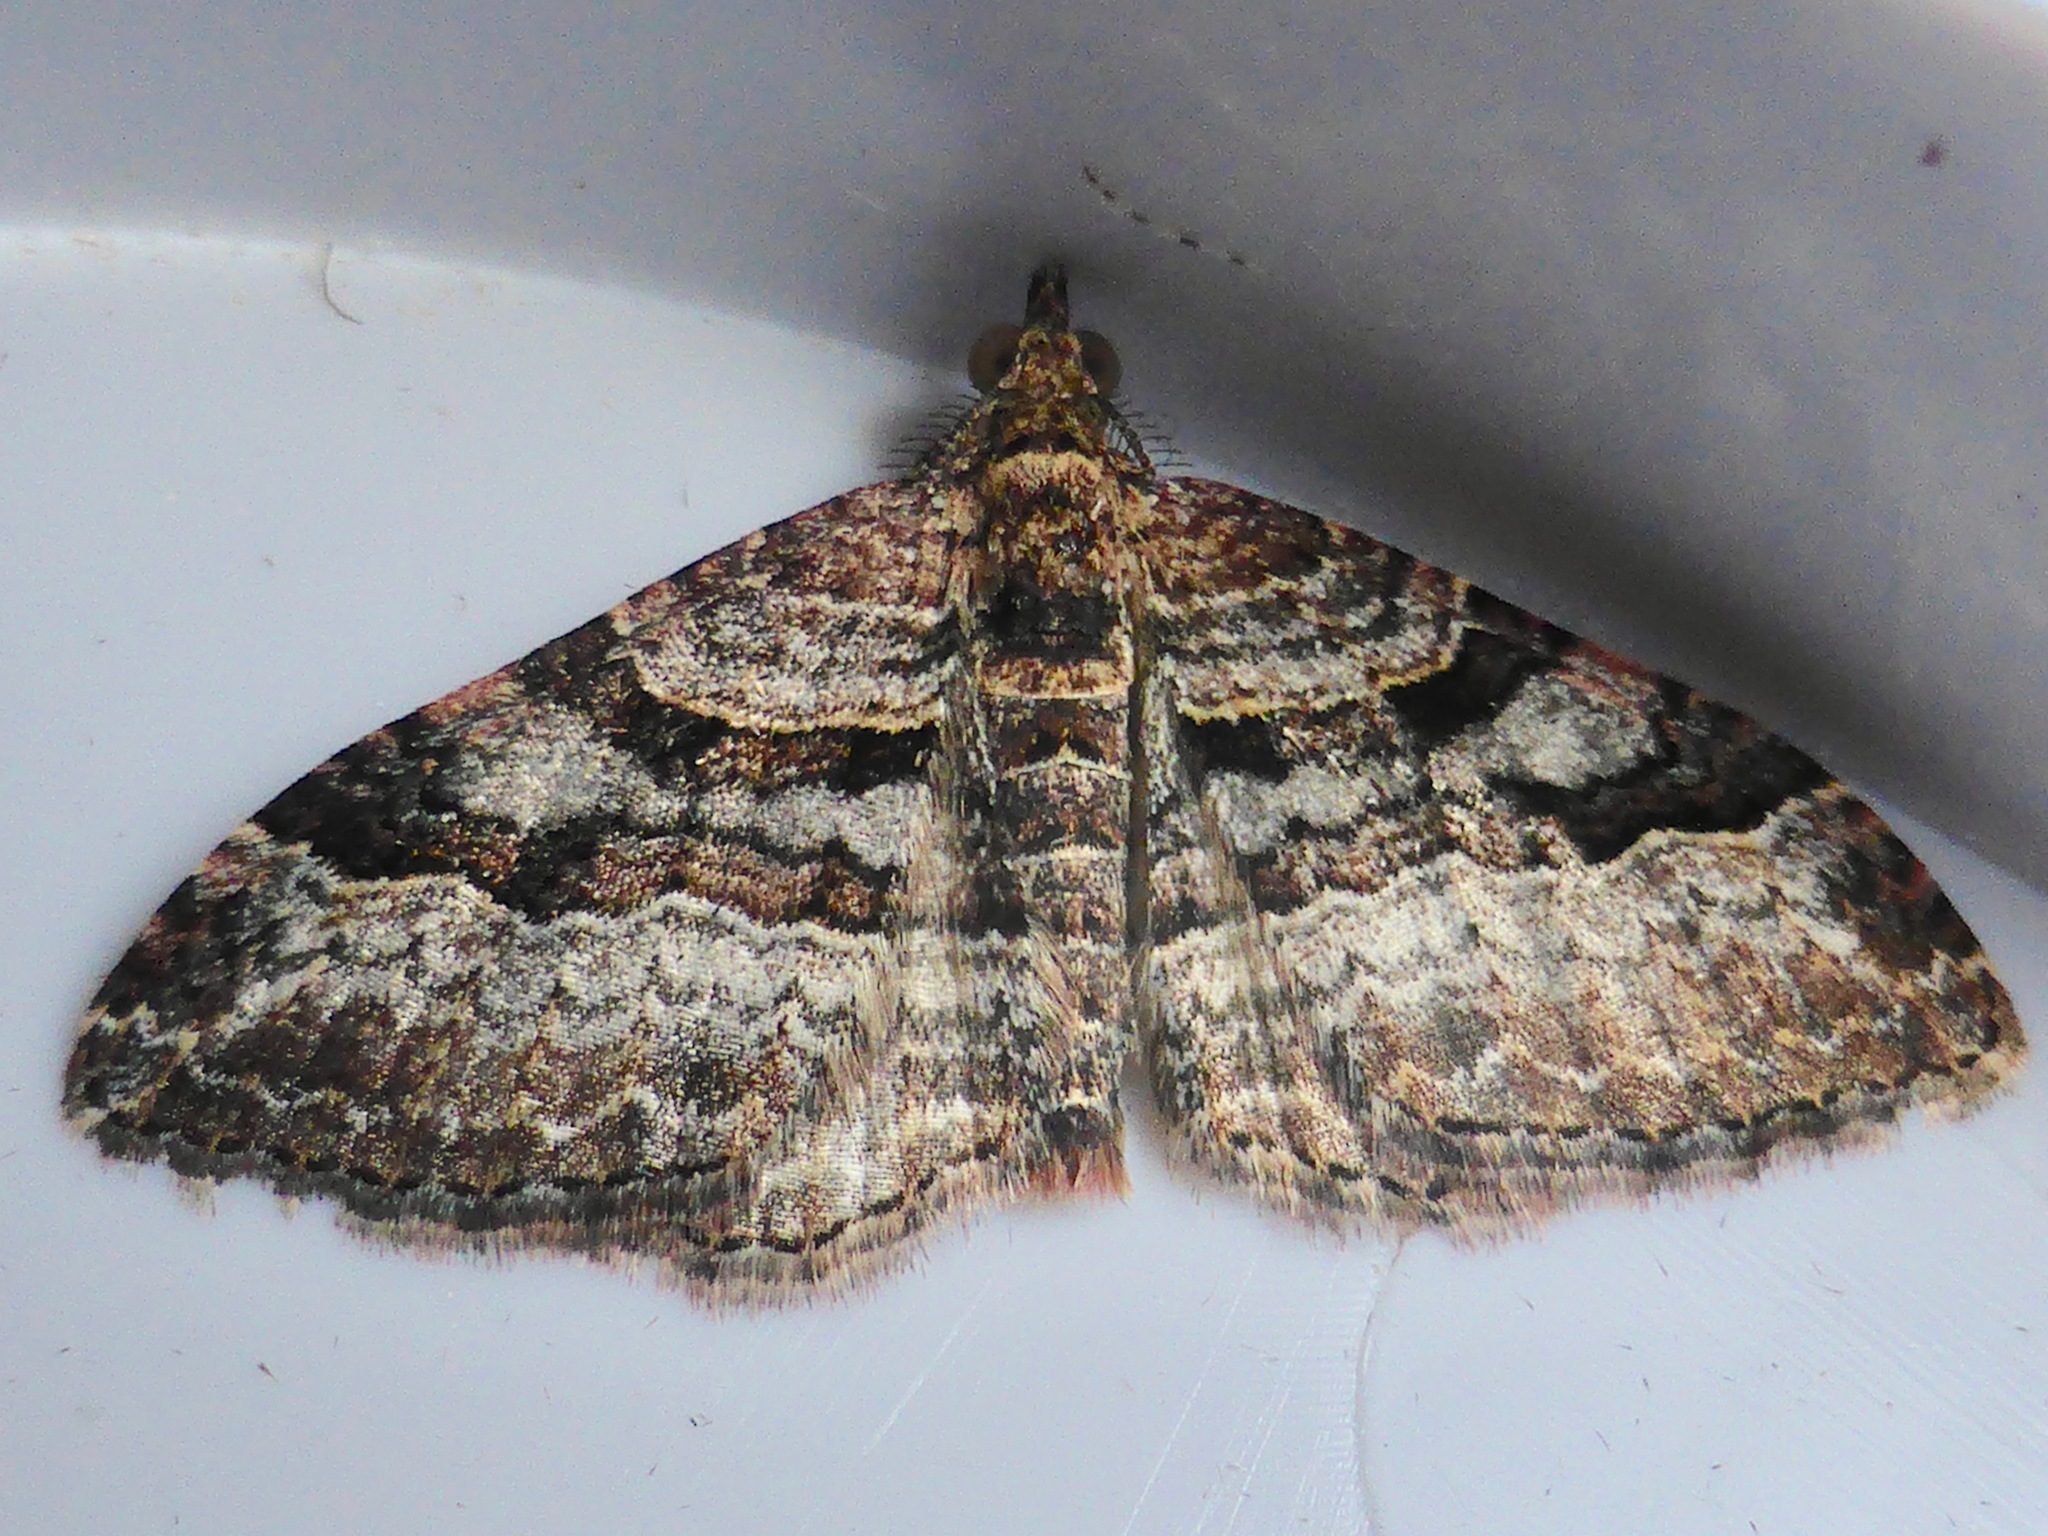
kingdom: Animalia
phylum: Arthropoda
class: Insecta
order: Lepidoptera
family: Geometridae
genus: Epyaxa
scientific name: Epyaxa lucidata
